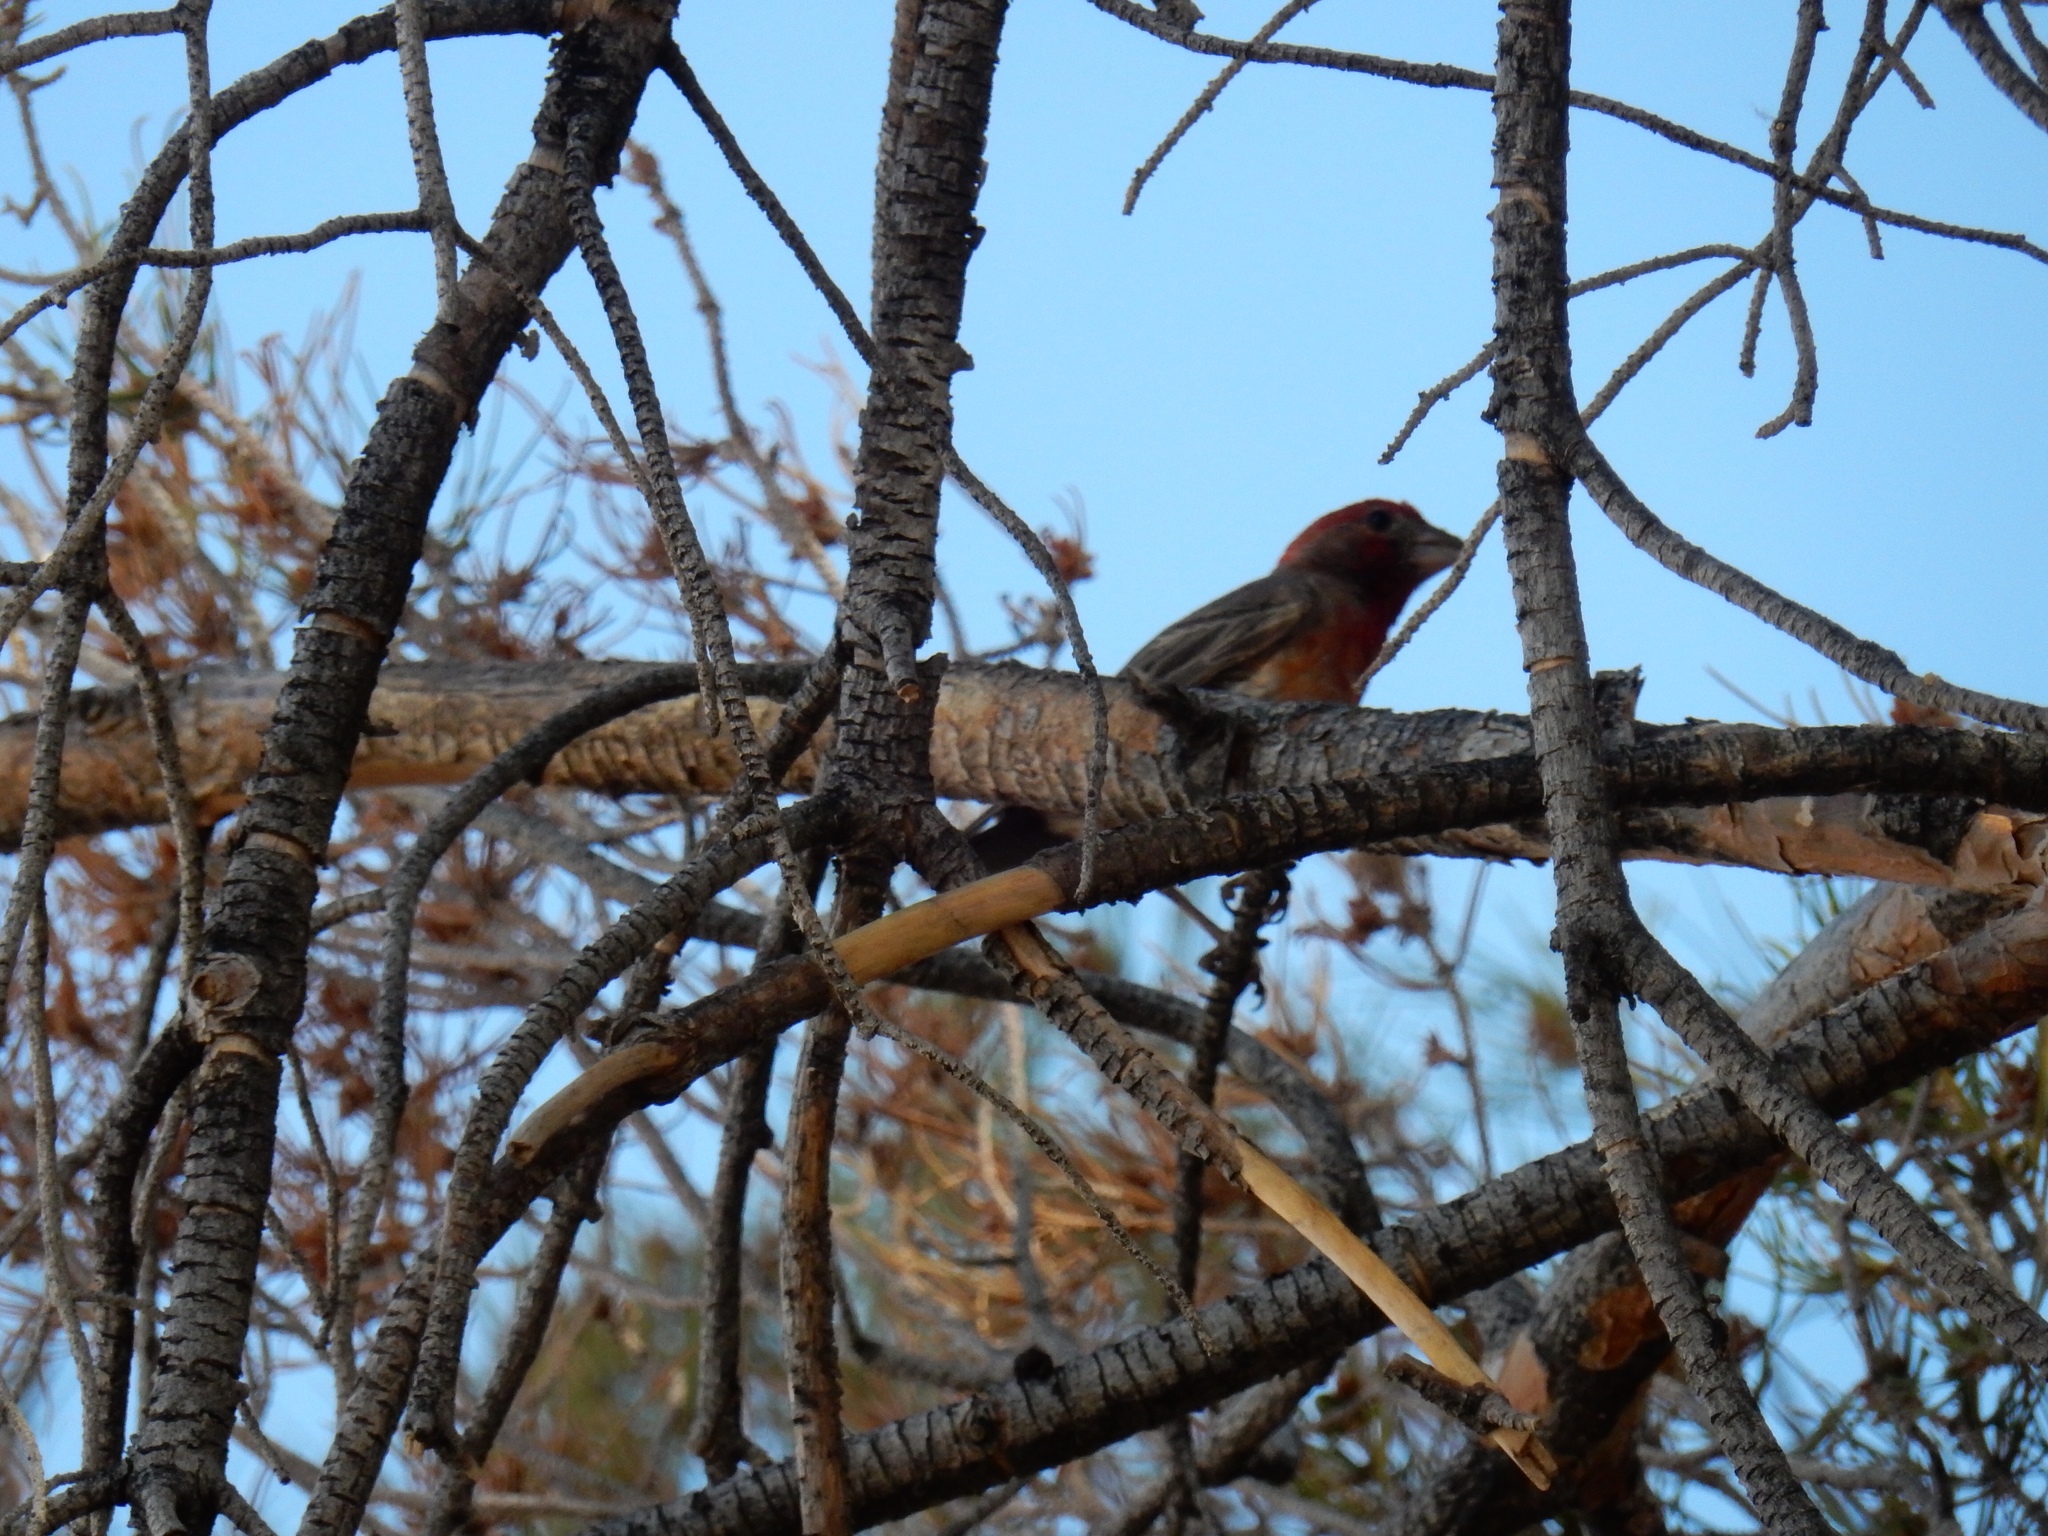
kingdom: Animalia
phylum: Chordata
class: Aves
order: Passeriformes
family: Fringillidae
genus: Haemorhous
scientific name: Haemorhous mexicanus
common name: House finch
